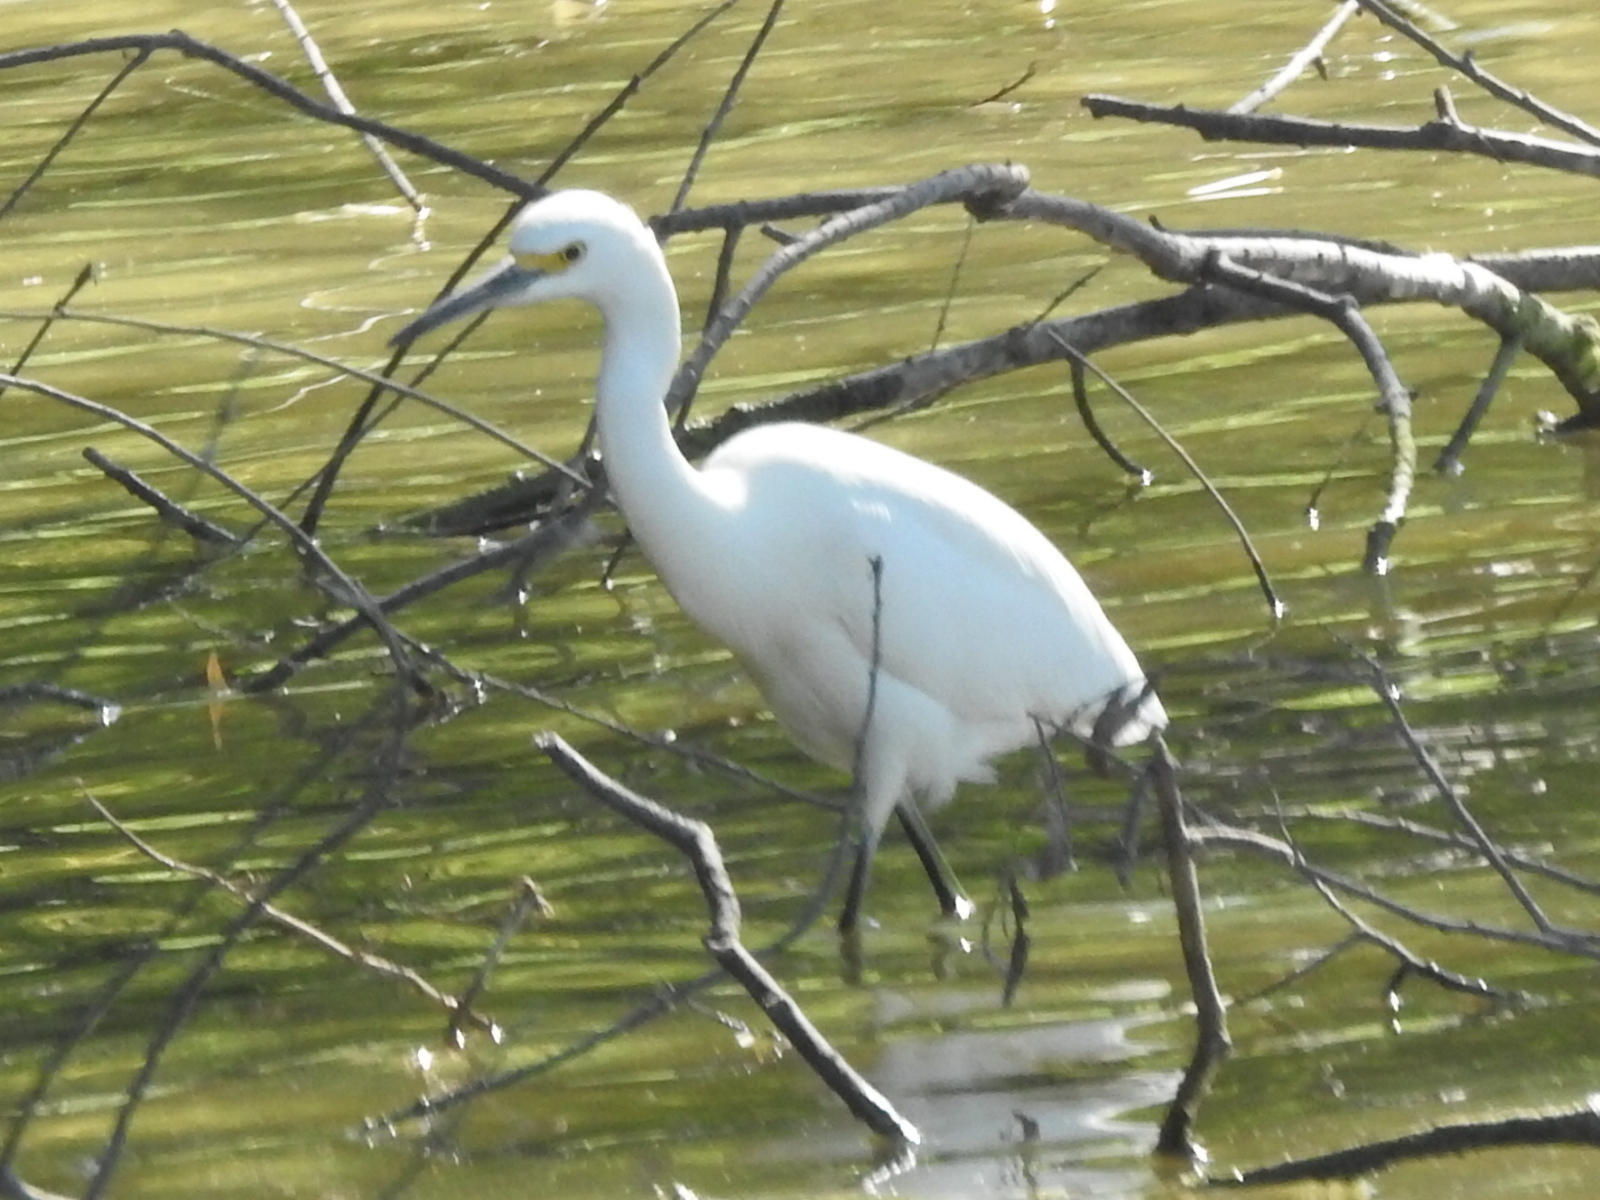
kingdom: Animalia
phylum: Chordata
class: Aves
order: Pelecaniformes
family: Ardeidae
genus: Egretta
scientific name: Egretta thula
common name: Snowy egret
